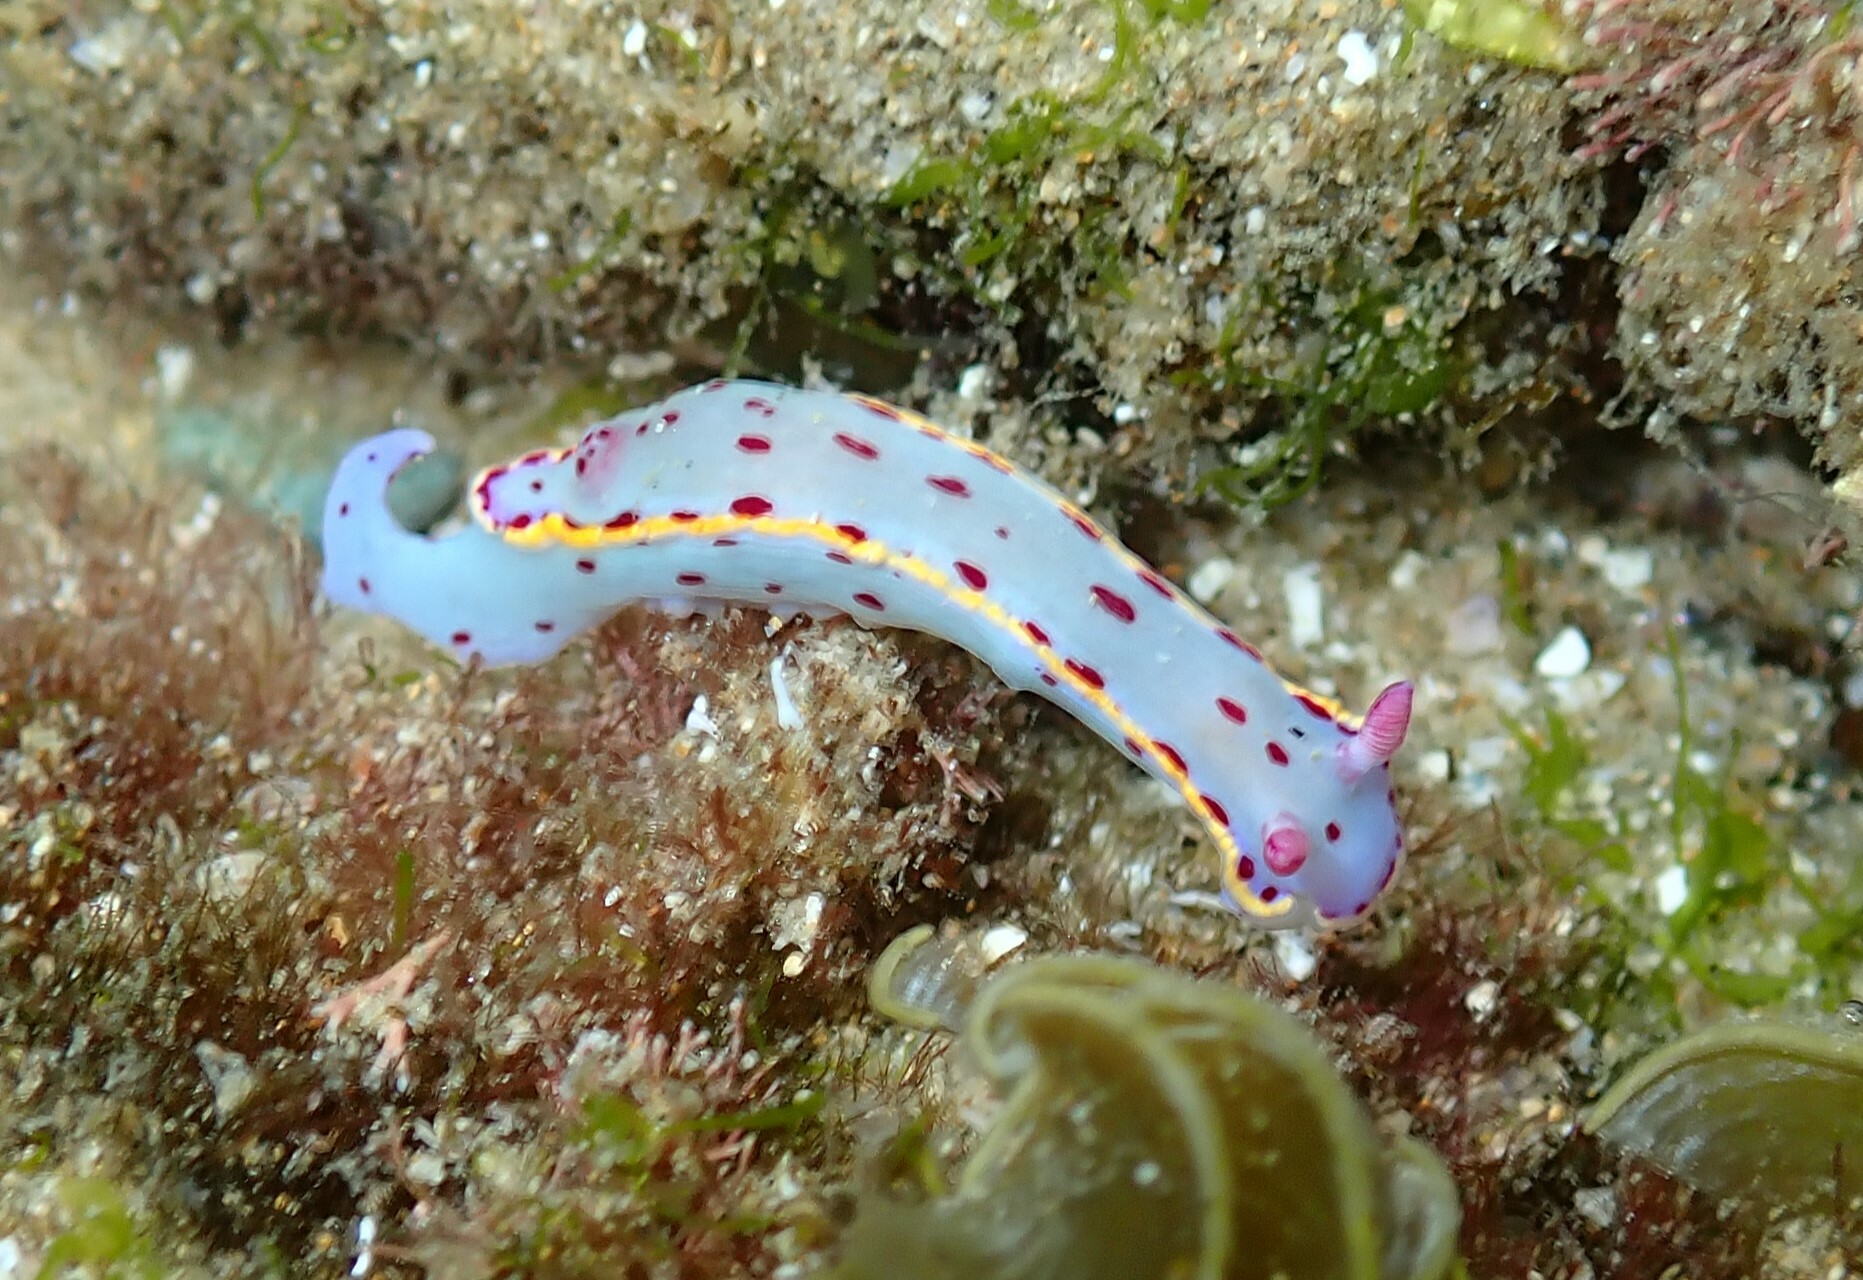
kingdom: Animalia
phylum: Mollusca
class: Gastropoda
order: Nudibranchia
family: Chromodorididae
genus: Hypselodoris
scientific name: Hypselodoris bennetti
